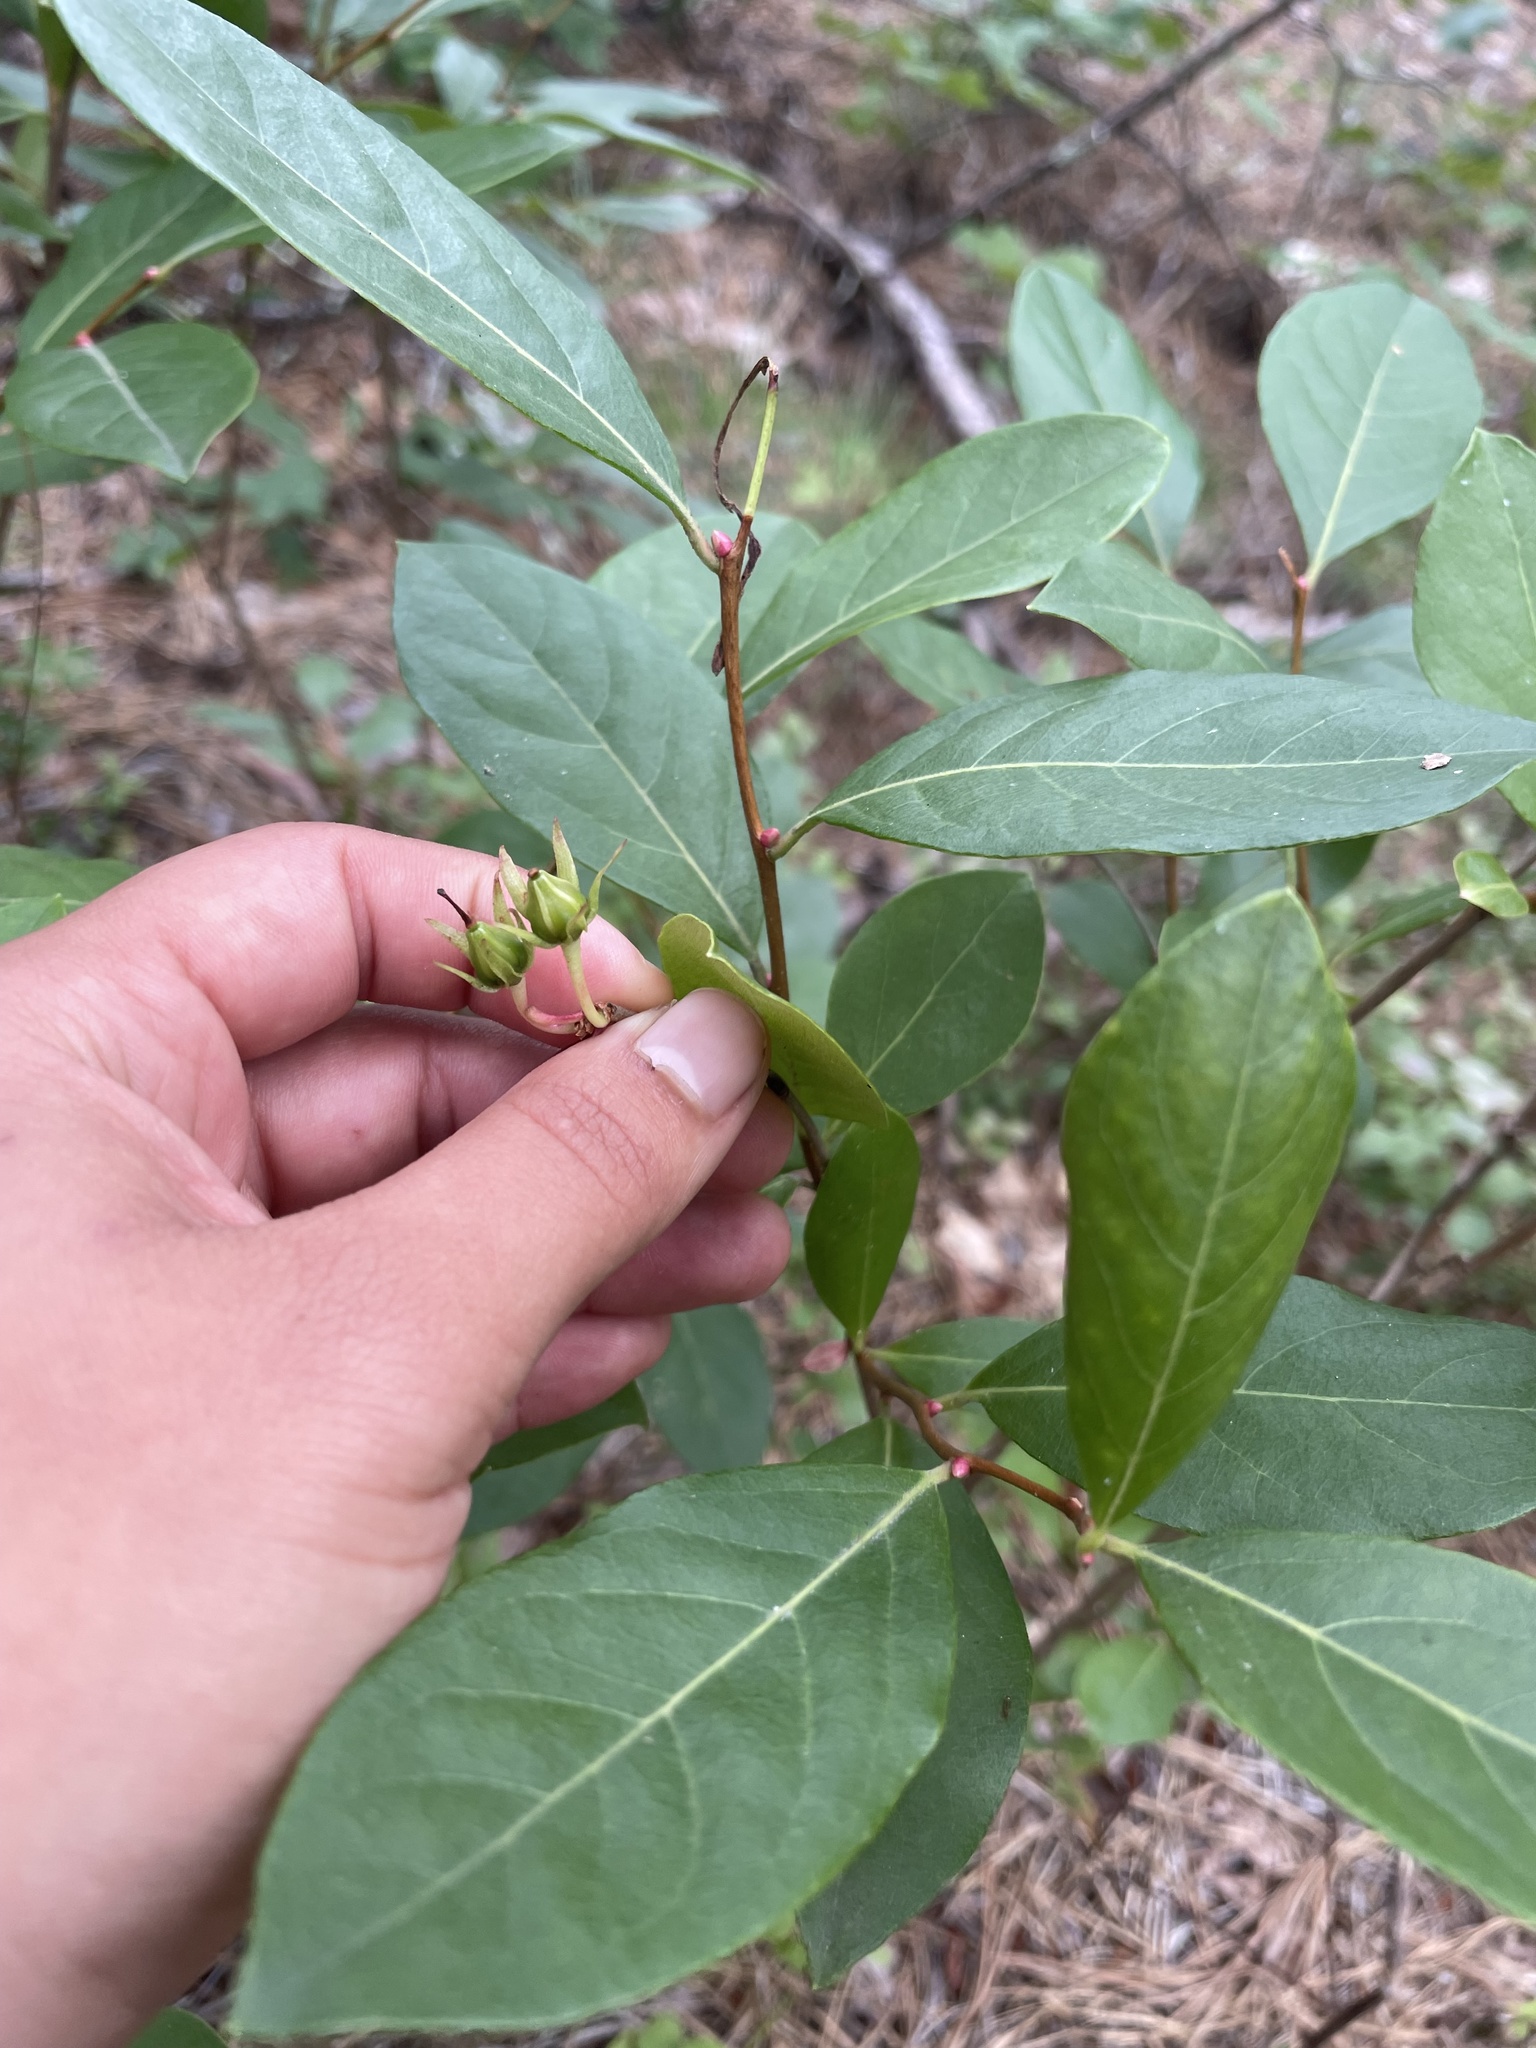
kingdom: Plantae
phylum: Tracheophyta
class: Magnoliopsida
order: Ericales
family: Ericaceae
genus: Lyonia
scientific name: Lyonia mariana
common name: Staggerbush
